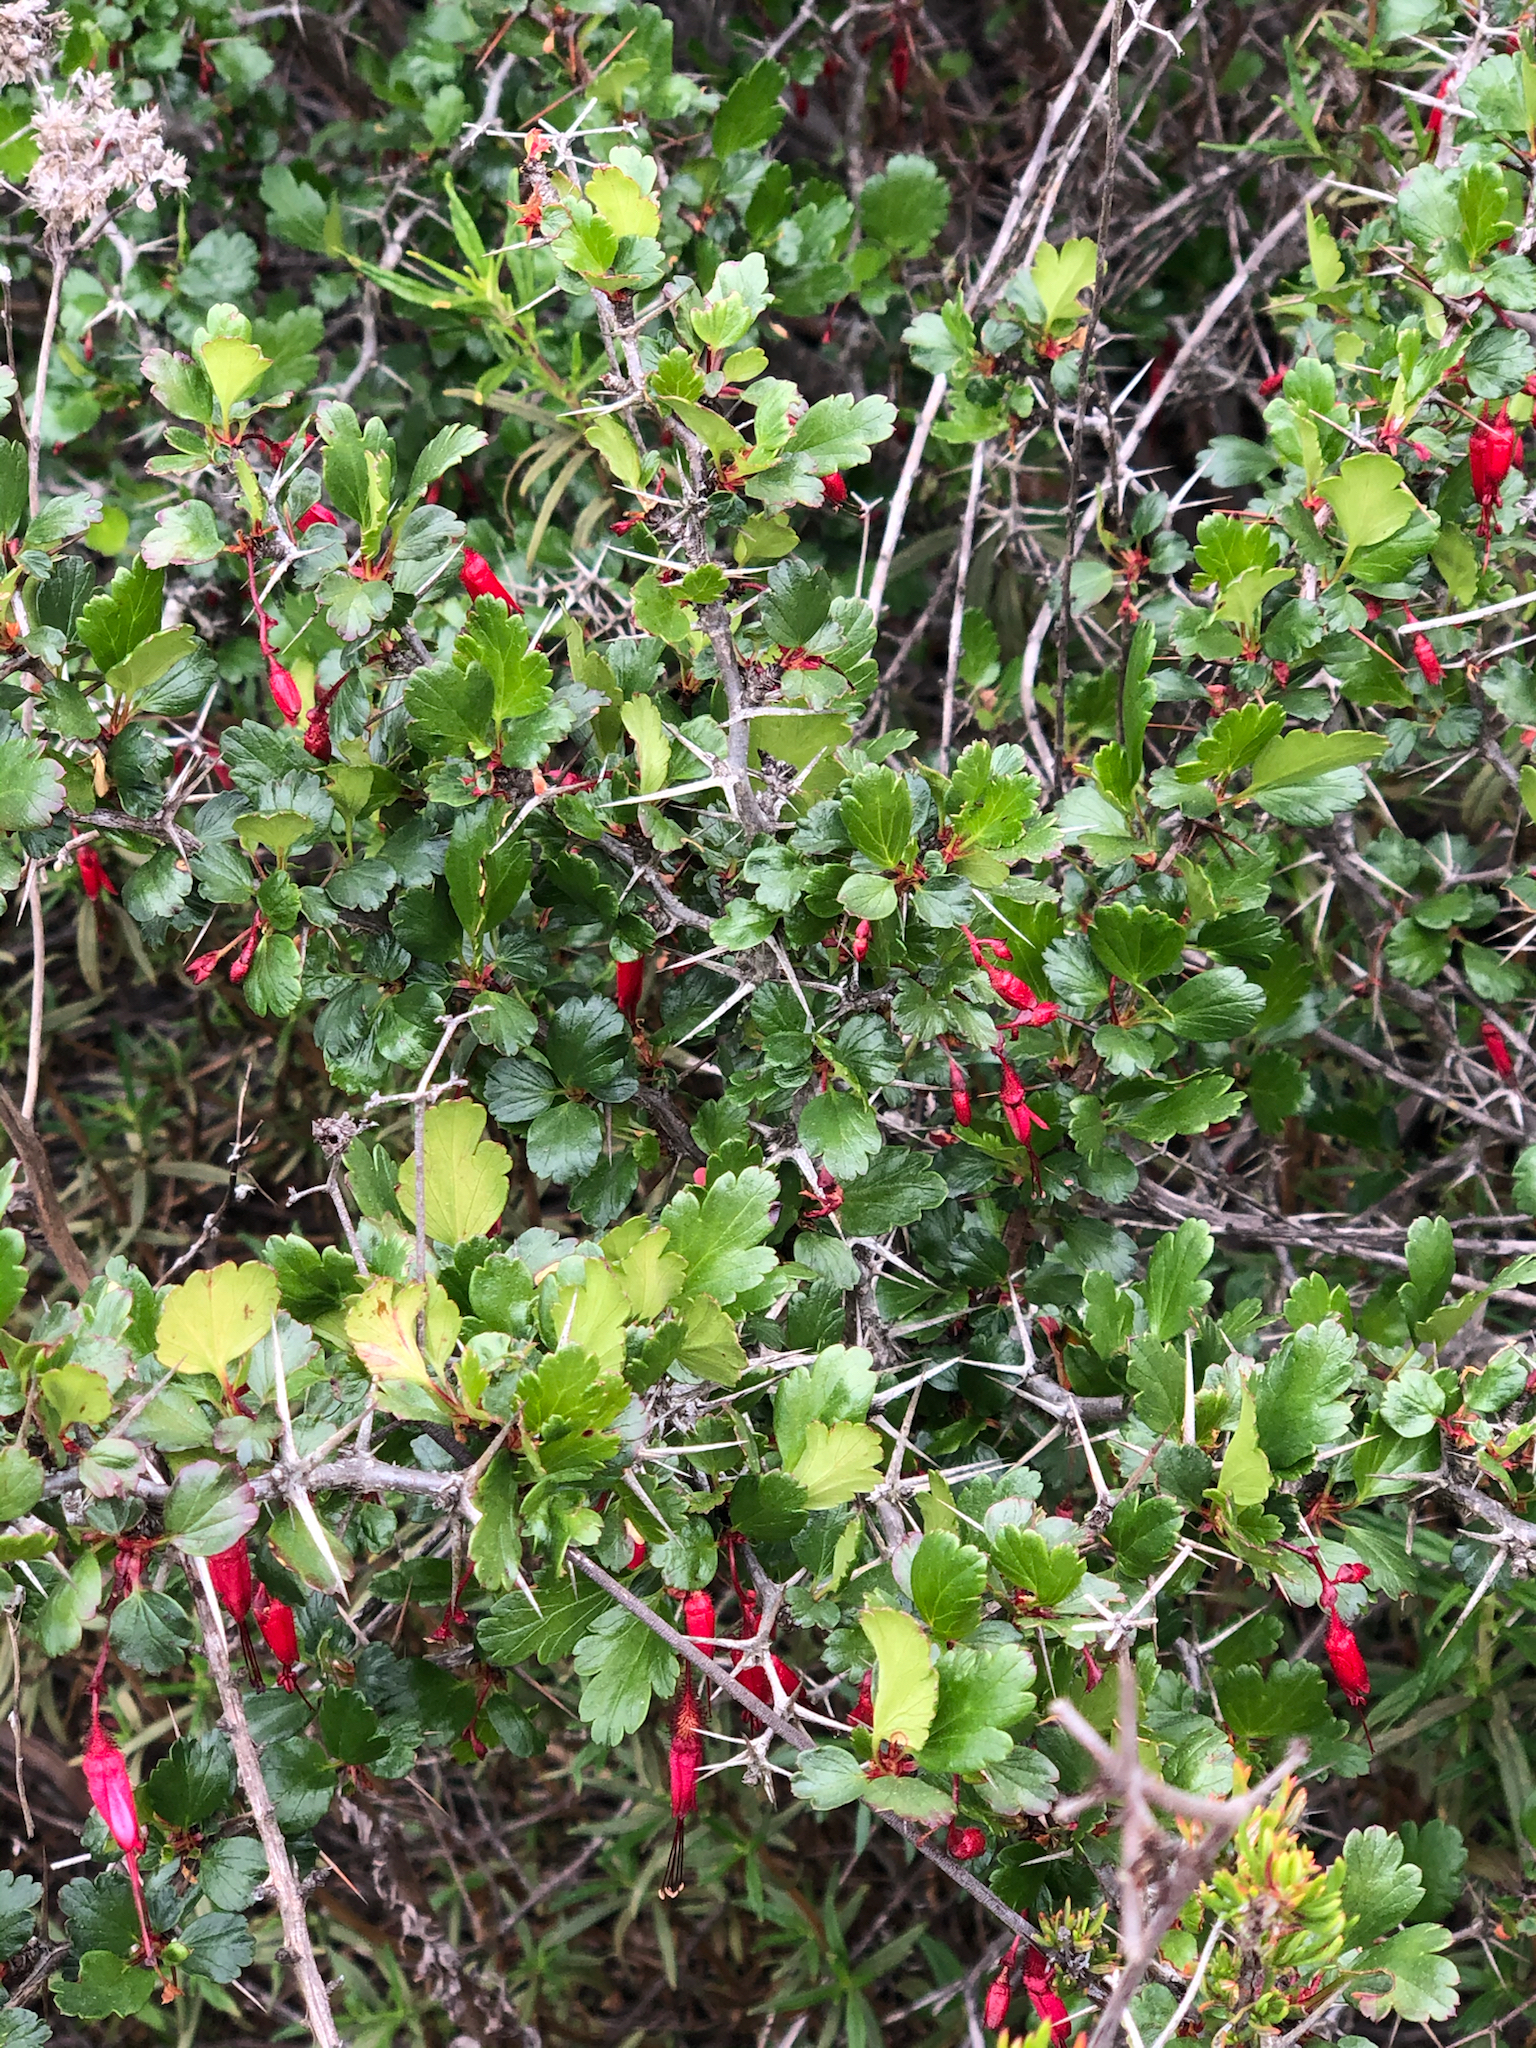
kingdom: Plantae
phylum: Tracheophyta
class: Magnoliopsida
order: Saxifragales
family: Grossulariaceae
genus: Ribes
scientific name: Ribes speciosum
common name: Fuchsia-flower gooseberry
